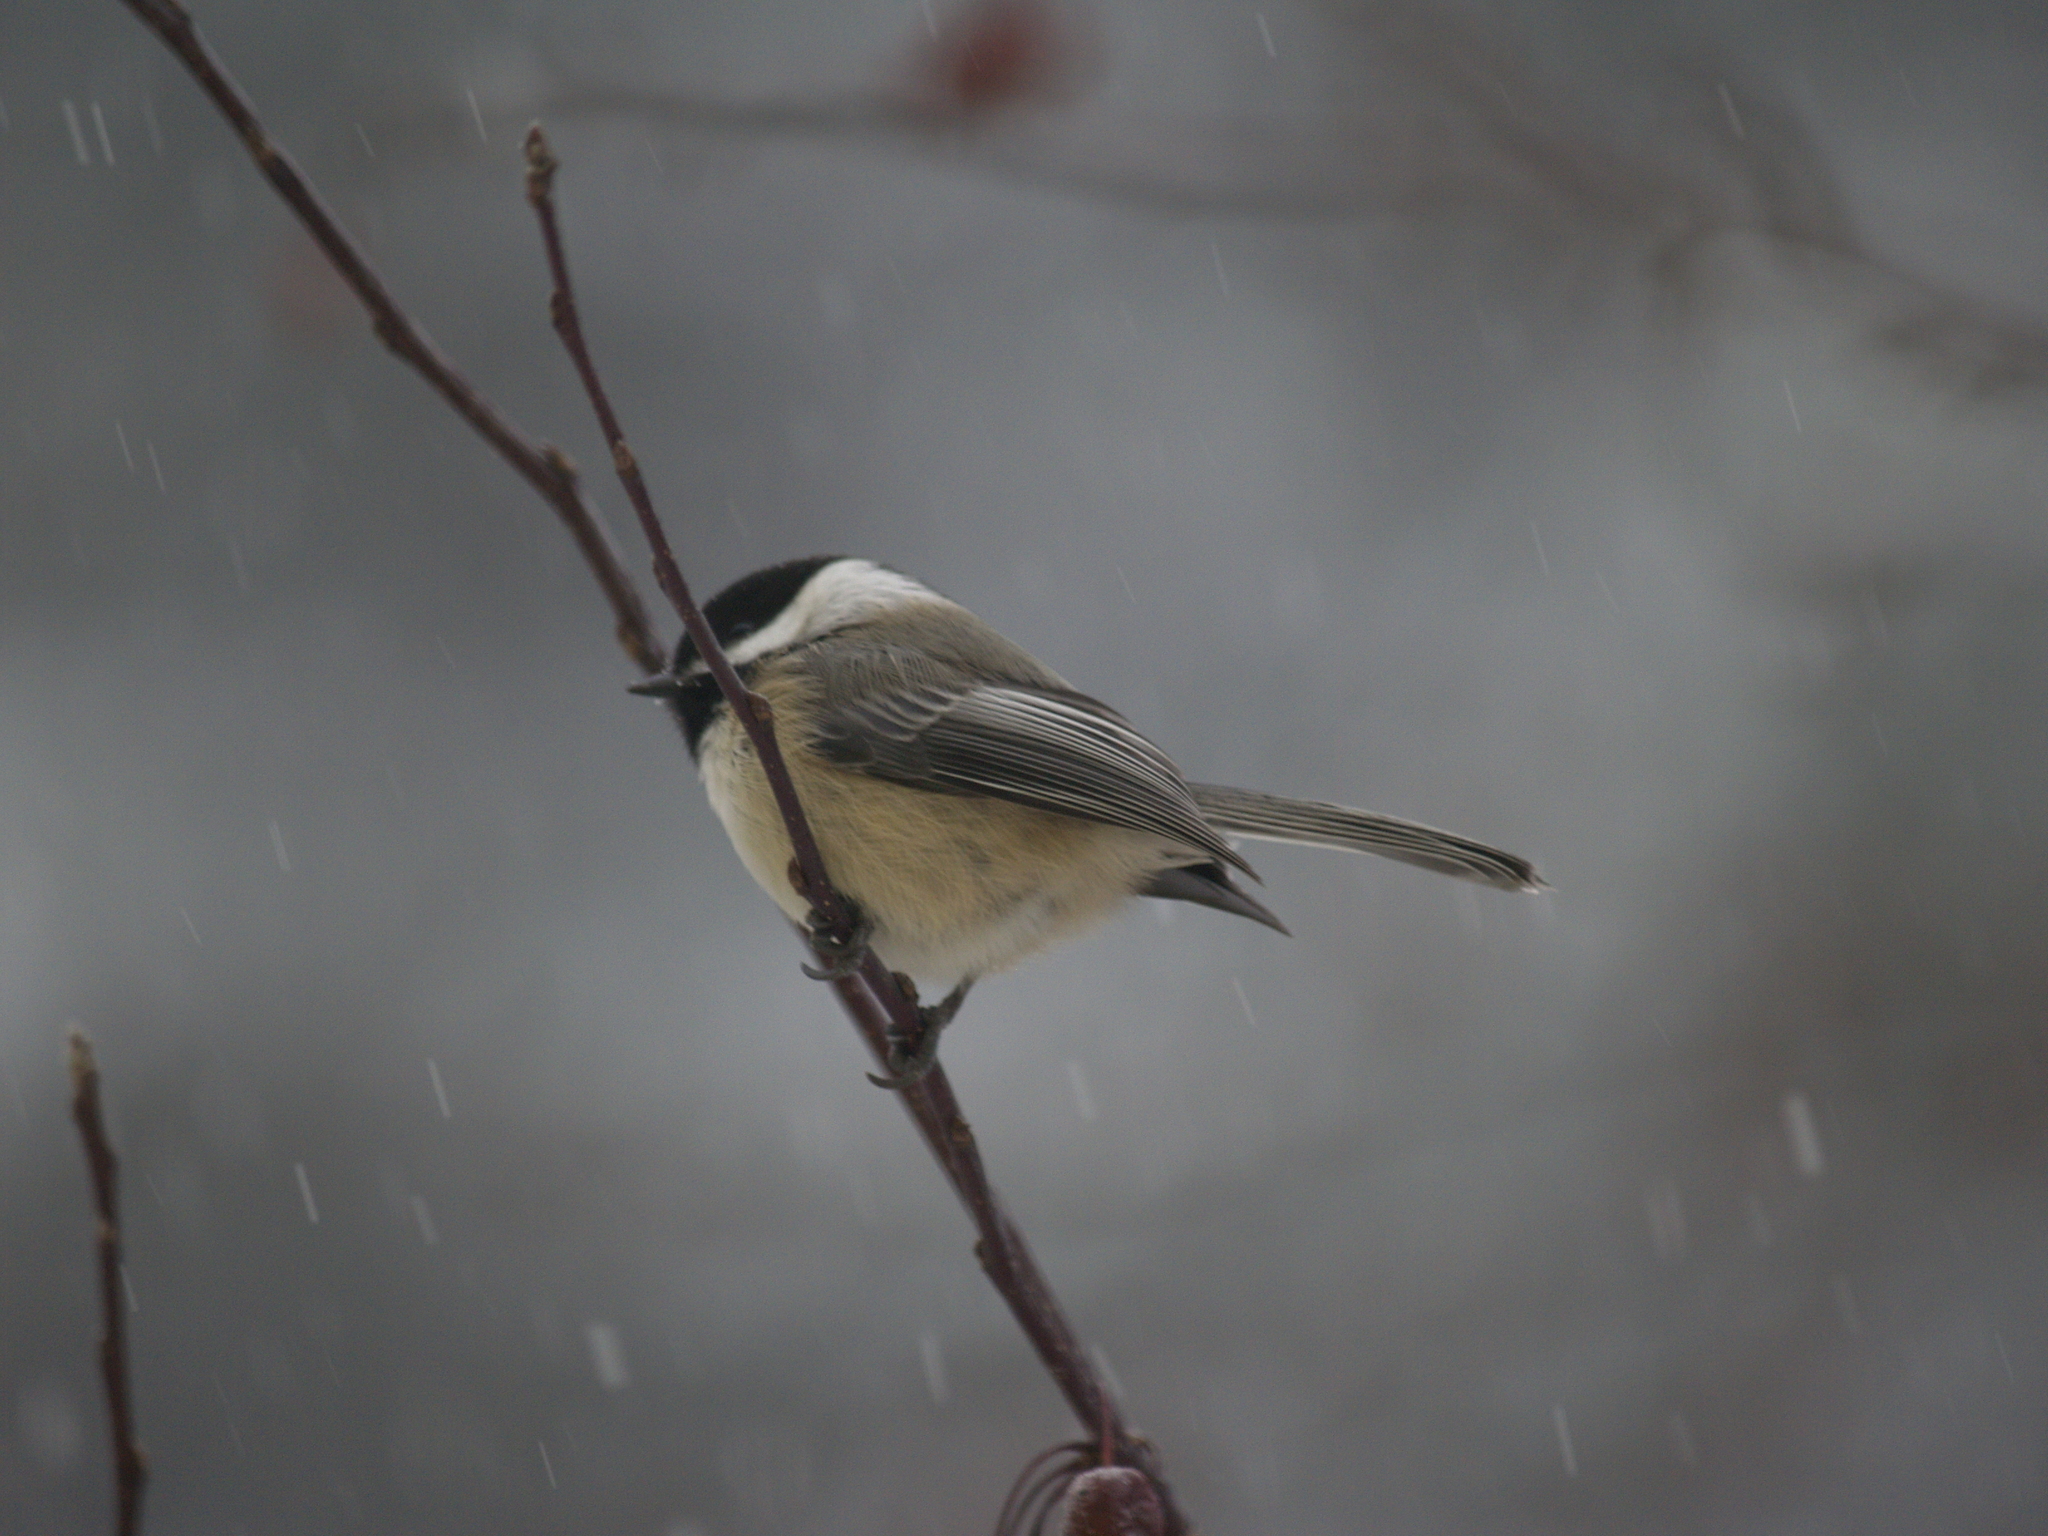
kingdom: Animalia
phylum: Chordata
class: Aves
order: Passeriformes
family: Paridae
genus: Poecile
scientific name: Poecile atricapillus
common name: Black-capped chickadee
